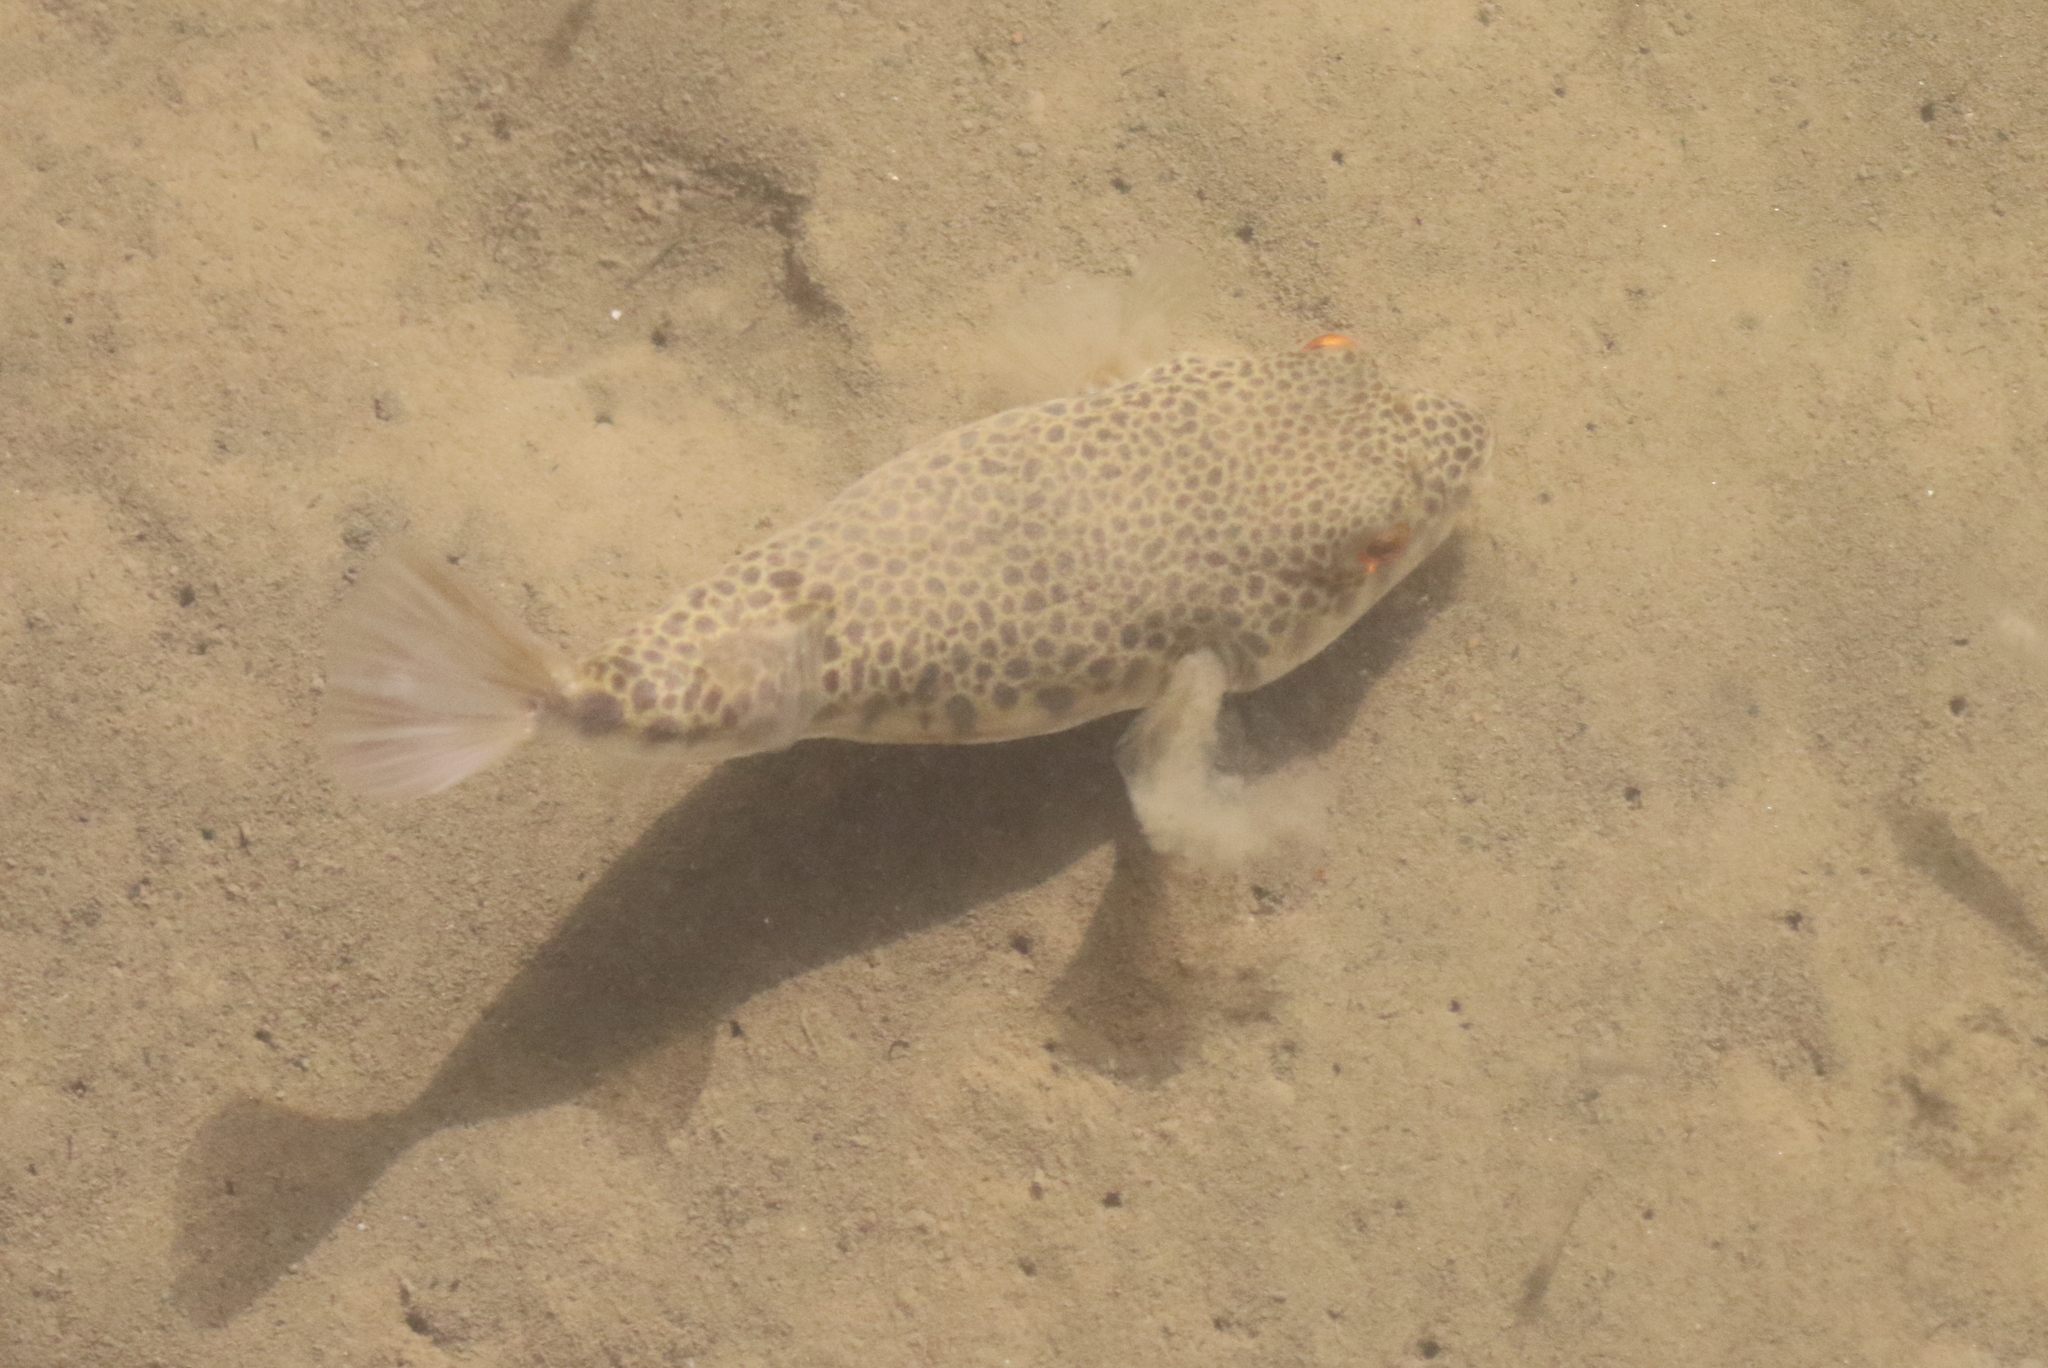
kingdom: Animalia
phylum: Chordata
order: Tetraodontiformes
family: Tetraodontidae
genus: Tetractenos
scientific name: Tetractenos hamiltoni
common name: Common toadfish
